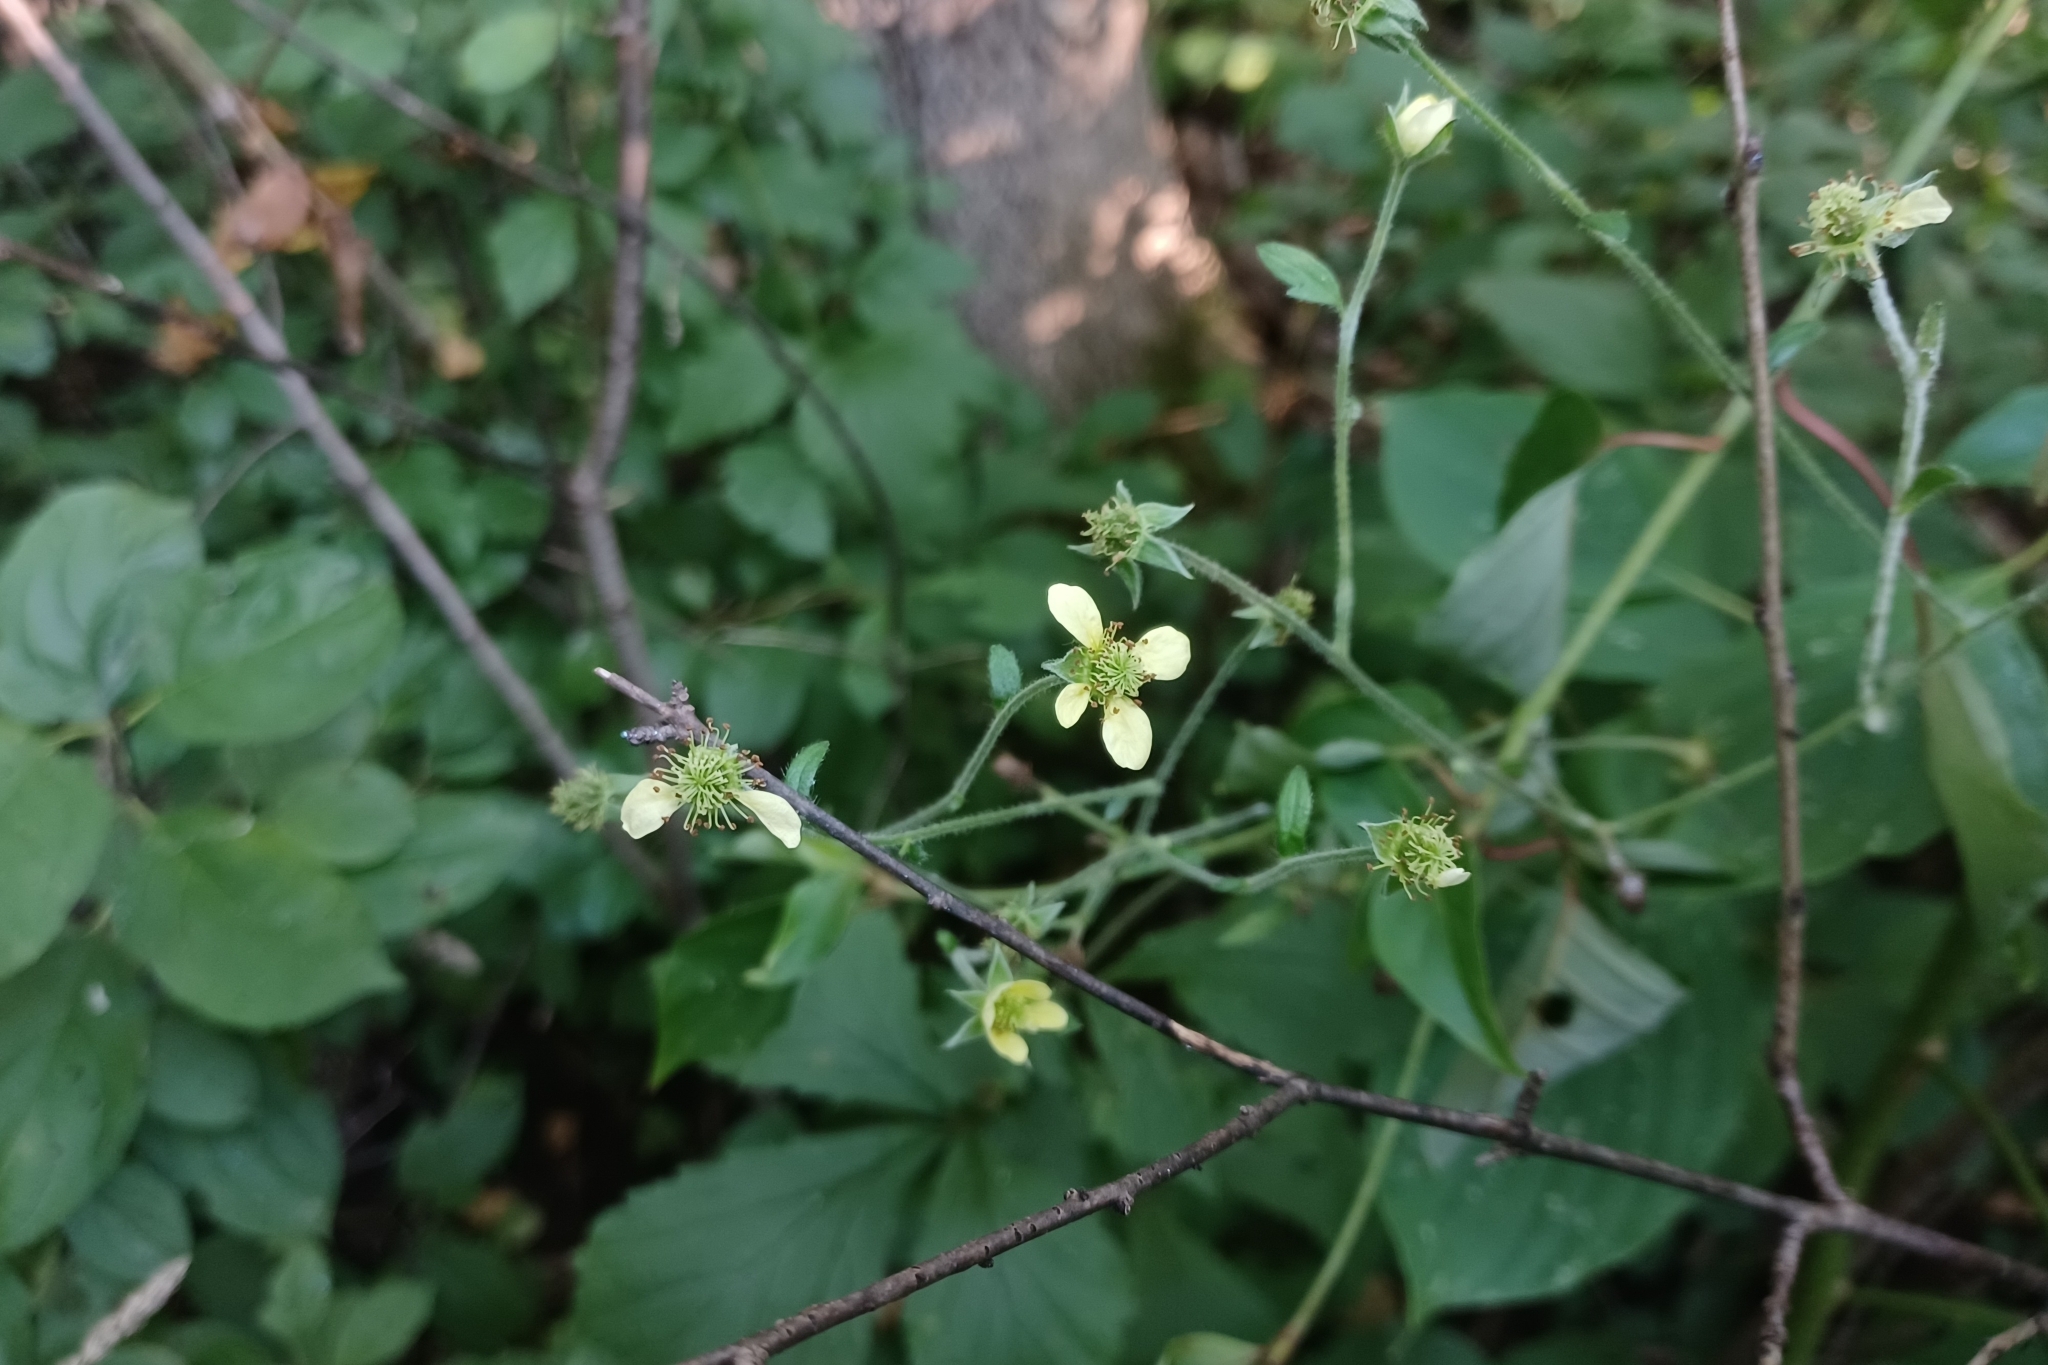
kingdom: Plantae
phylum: Tracheophyta
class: Magnoliopsida
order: Rosales
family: Rosaceae
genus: Geum
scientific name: Geum catlingii
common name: Catling's avens
